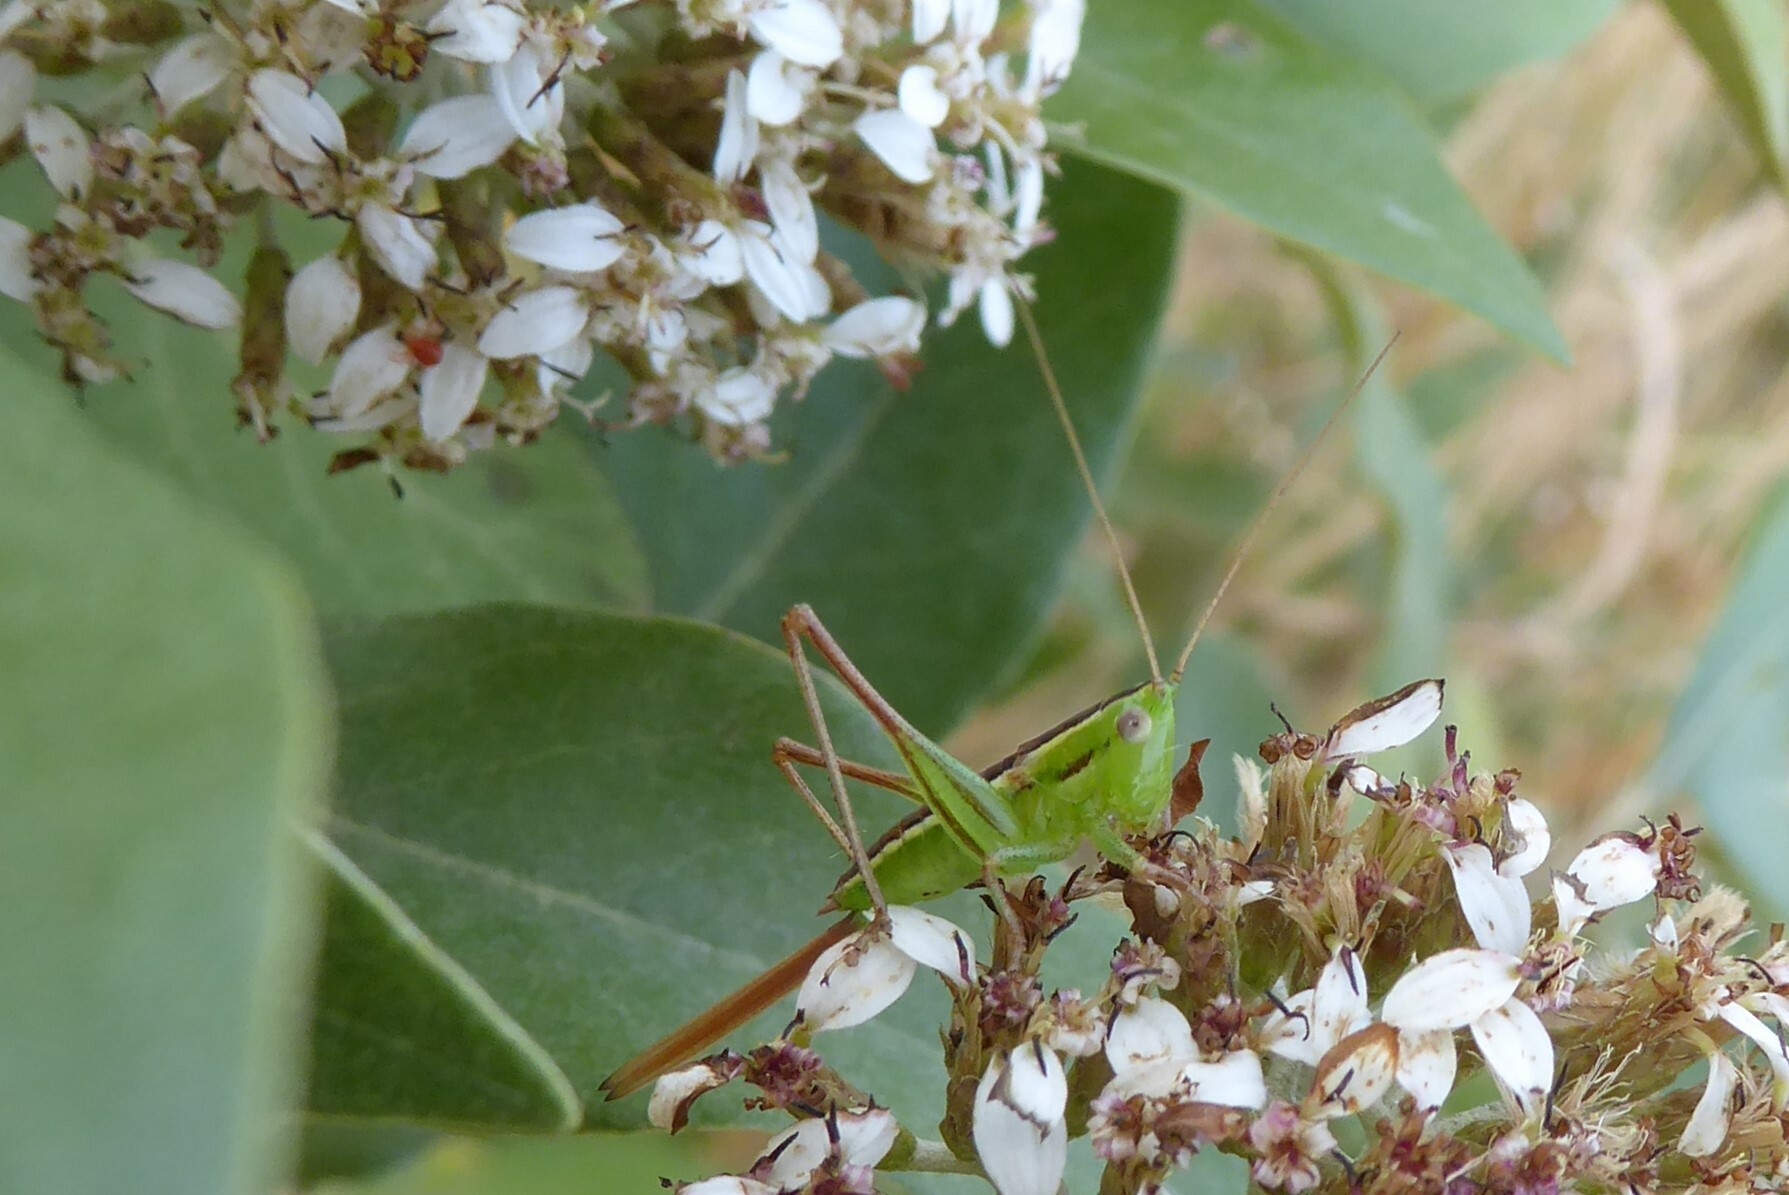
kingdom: Animalia
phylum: Arthropoda
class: Insecta
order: Orthoptera
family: Tettigoniidae
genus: Conocephalus
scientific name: Conocephalus bilineatus
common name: Small meadow katydid
